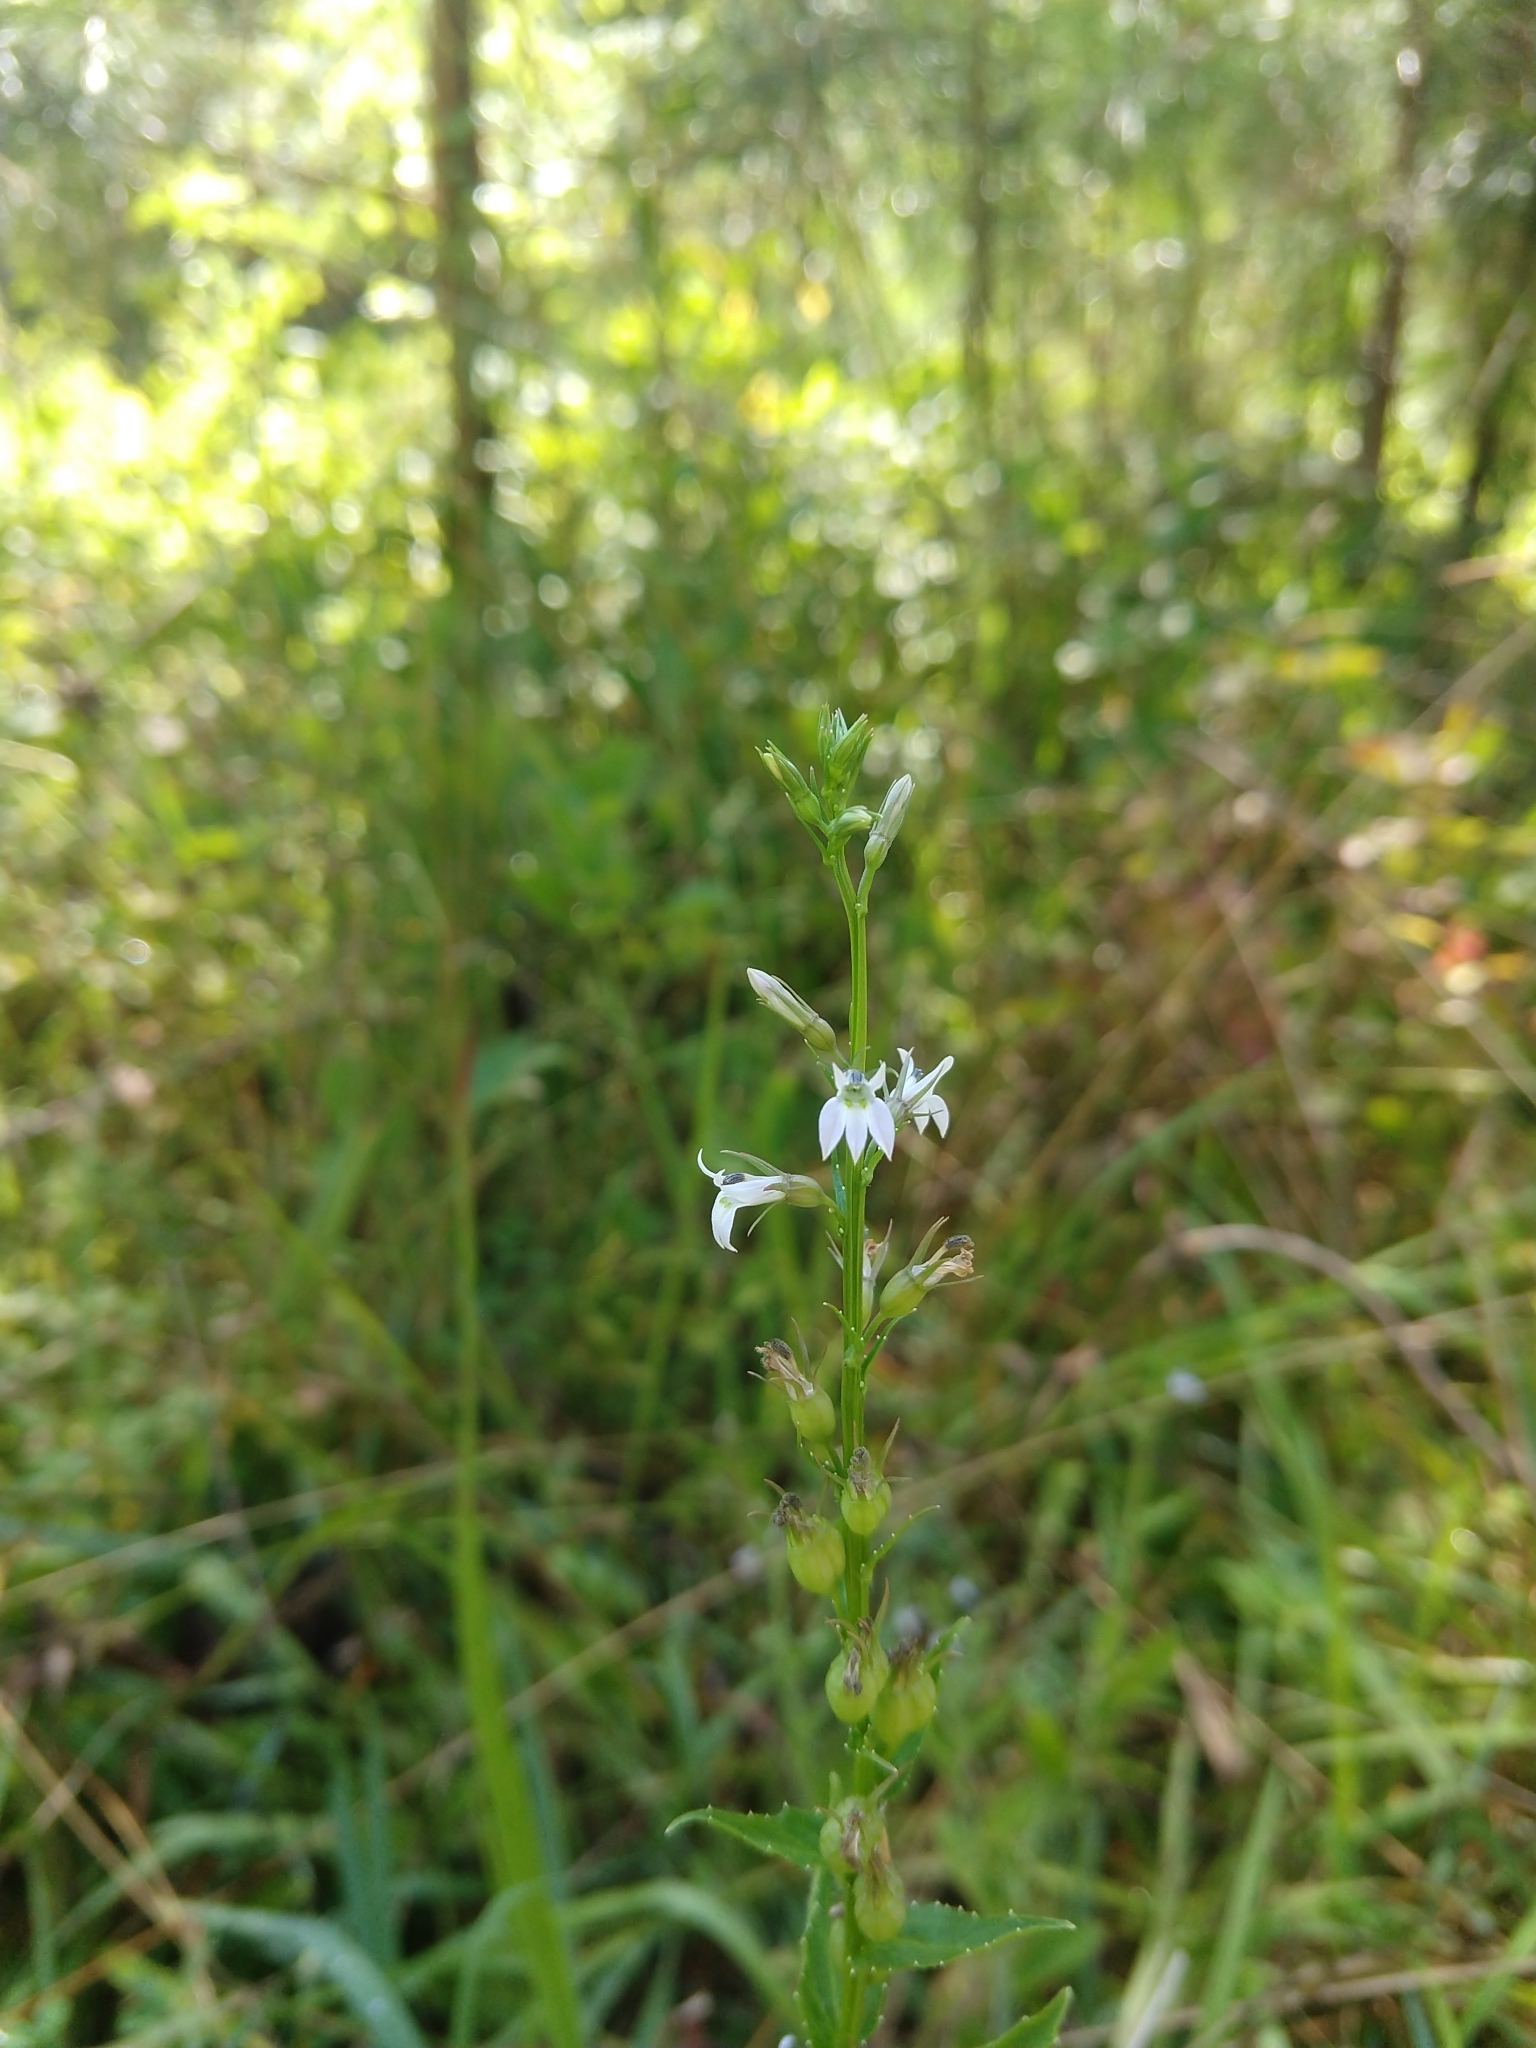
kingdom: Plantae
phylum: Tracheophyta
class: Magnoliopsida
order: Asterales
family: Campanulaceae
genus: Lobelia
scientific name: Lobelia inflata
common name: Indian tobacco
